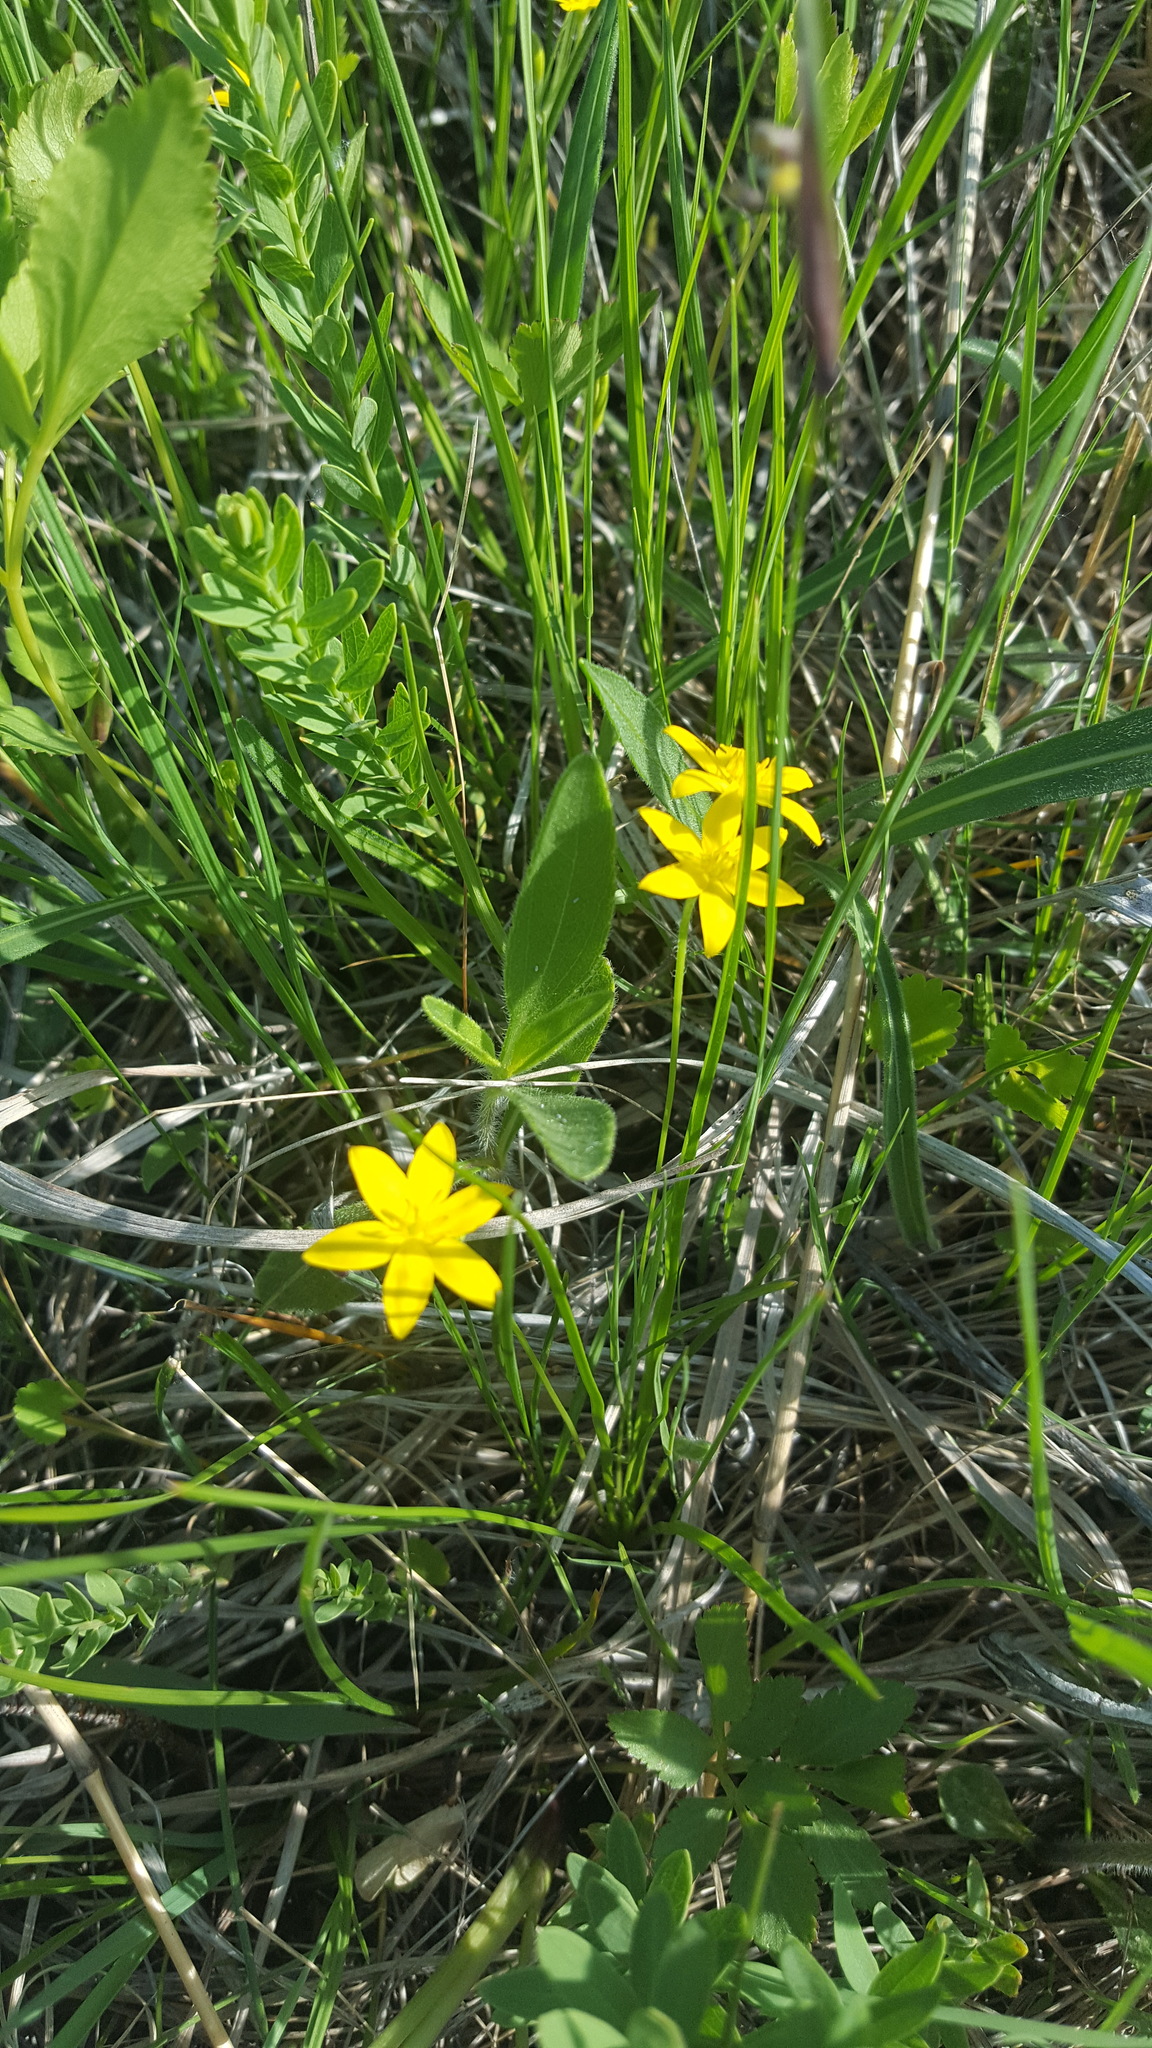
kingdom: Plantae
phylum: Tracheophyta
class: Liliopsida
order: Asparagales
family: Hypoxidaceae
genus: Hypoxis
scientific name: Hypoxis hirsuta
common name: Common goldstar
